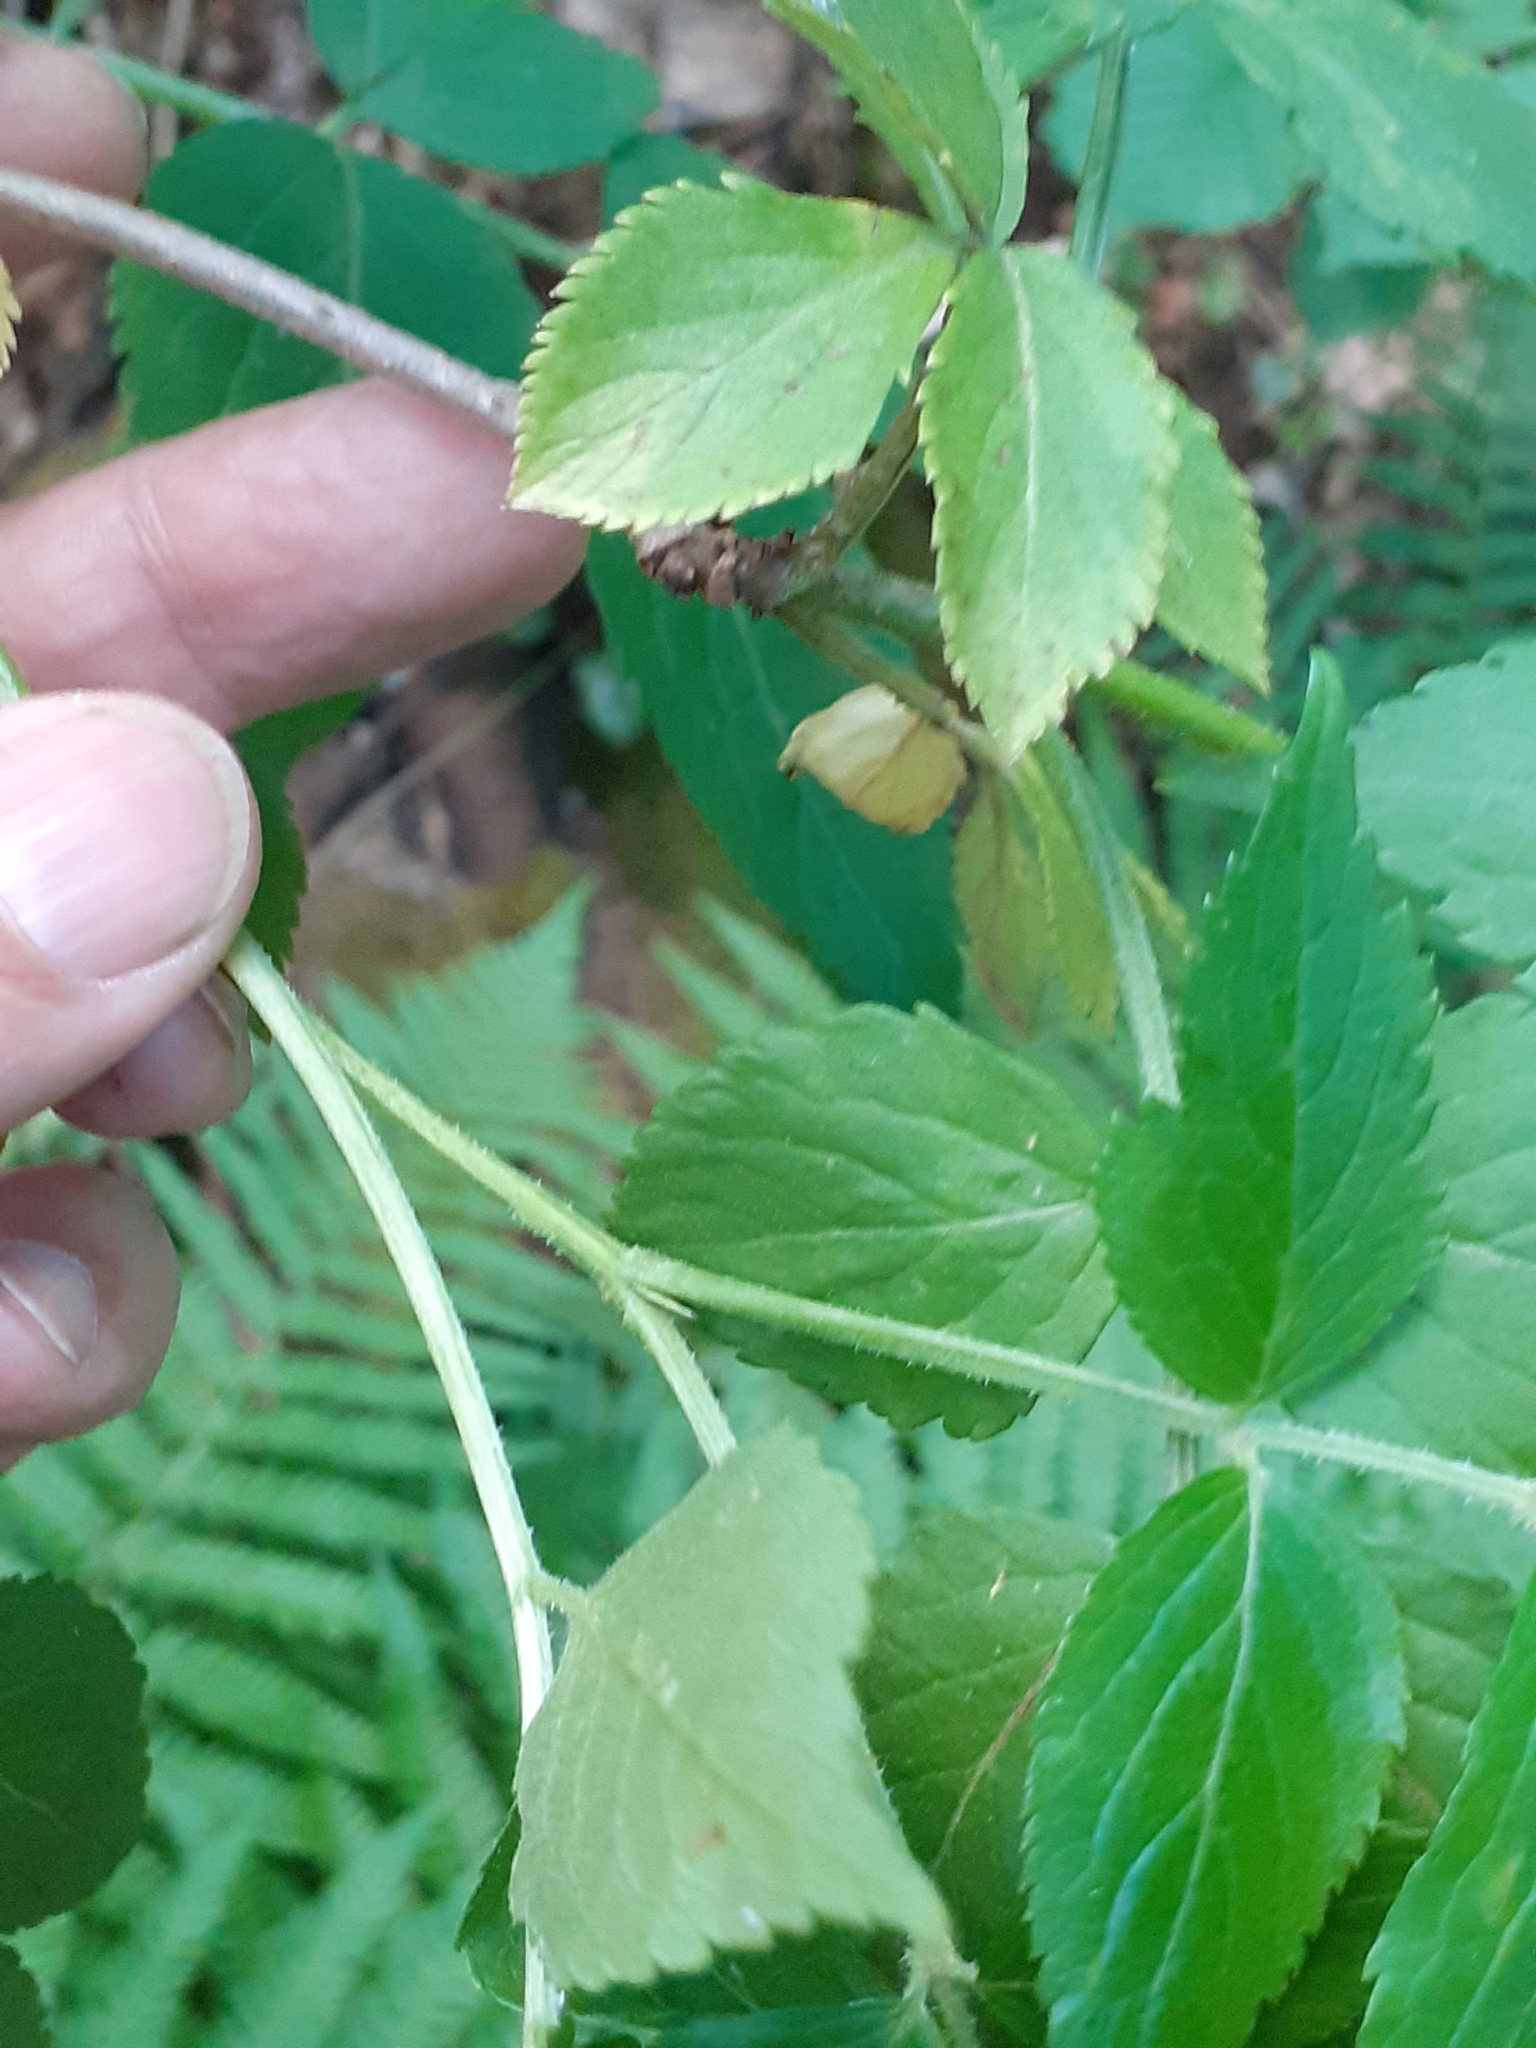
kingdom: Plantae
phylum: Tracheophyta
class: Magnoliopsida
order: Dipsacales
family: Viburnaceae
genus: Sambucus
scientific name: Sambucus nigra
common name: Elder
